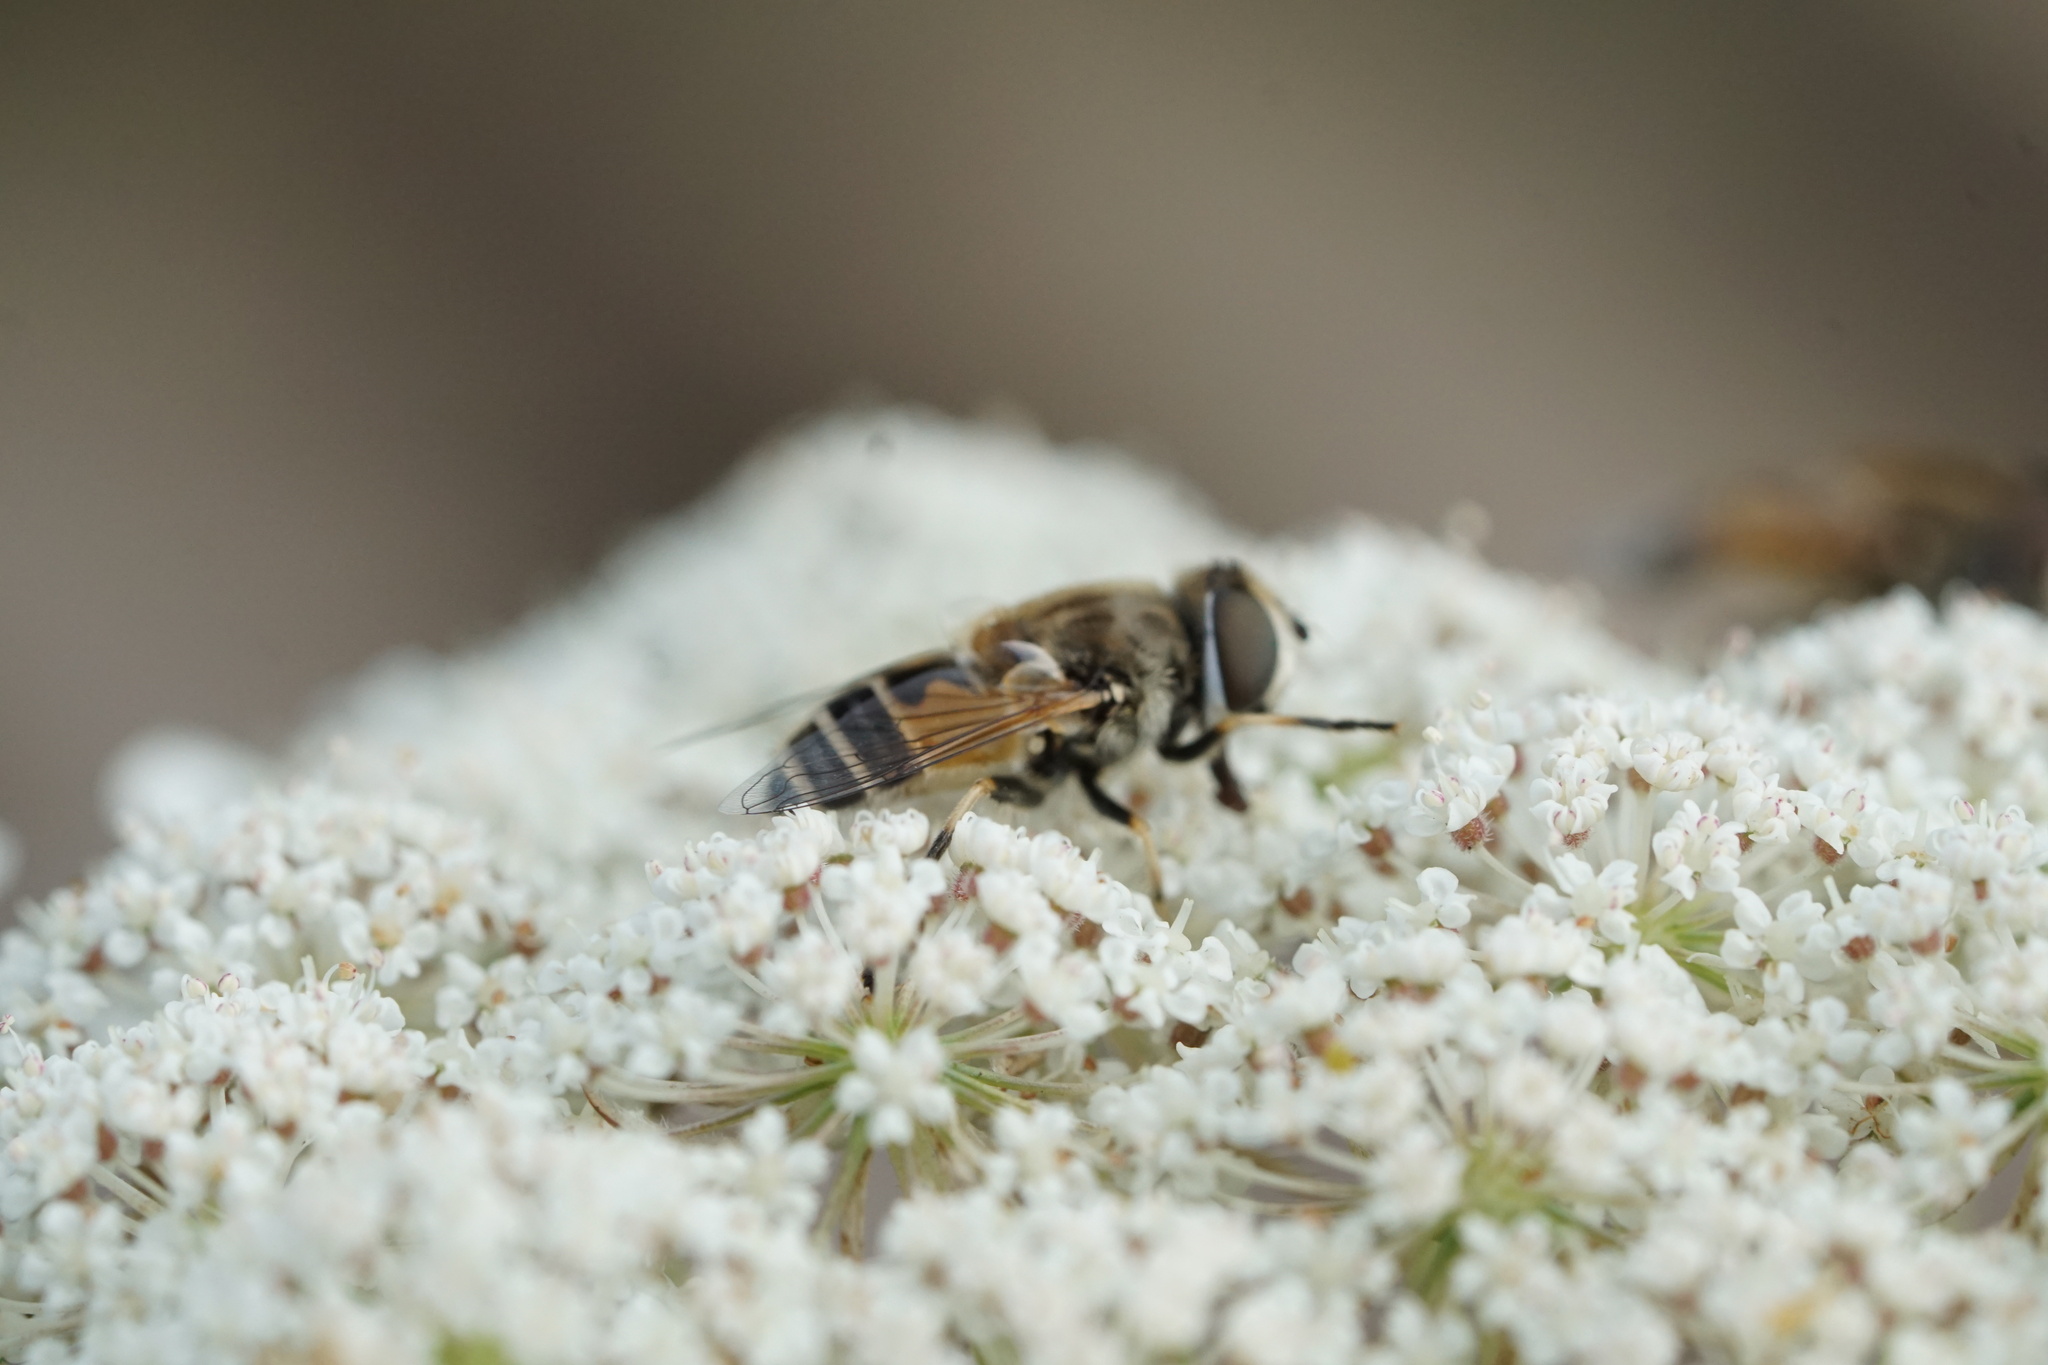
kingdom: Animalia
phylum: Arthropoda
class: Insecta
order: Diptera
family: Syrphidae
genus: Eristalis
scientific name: Eristalis arbustorum
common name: Hover fly
